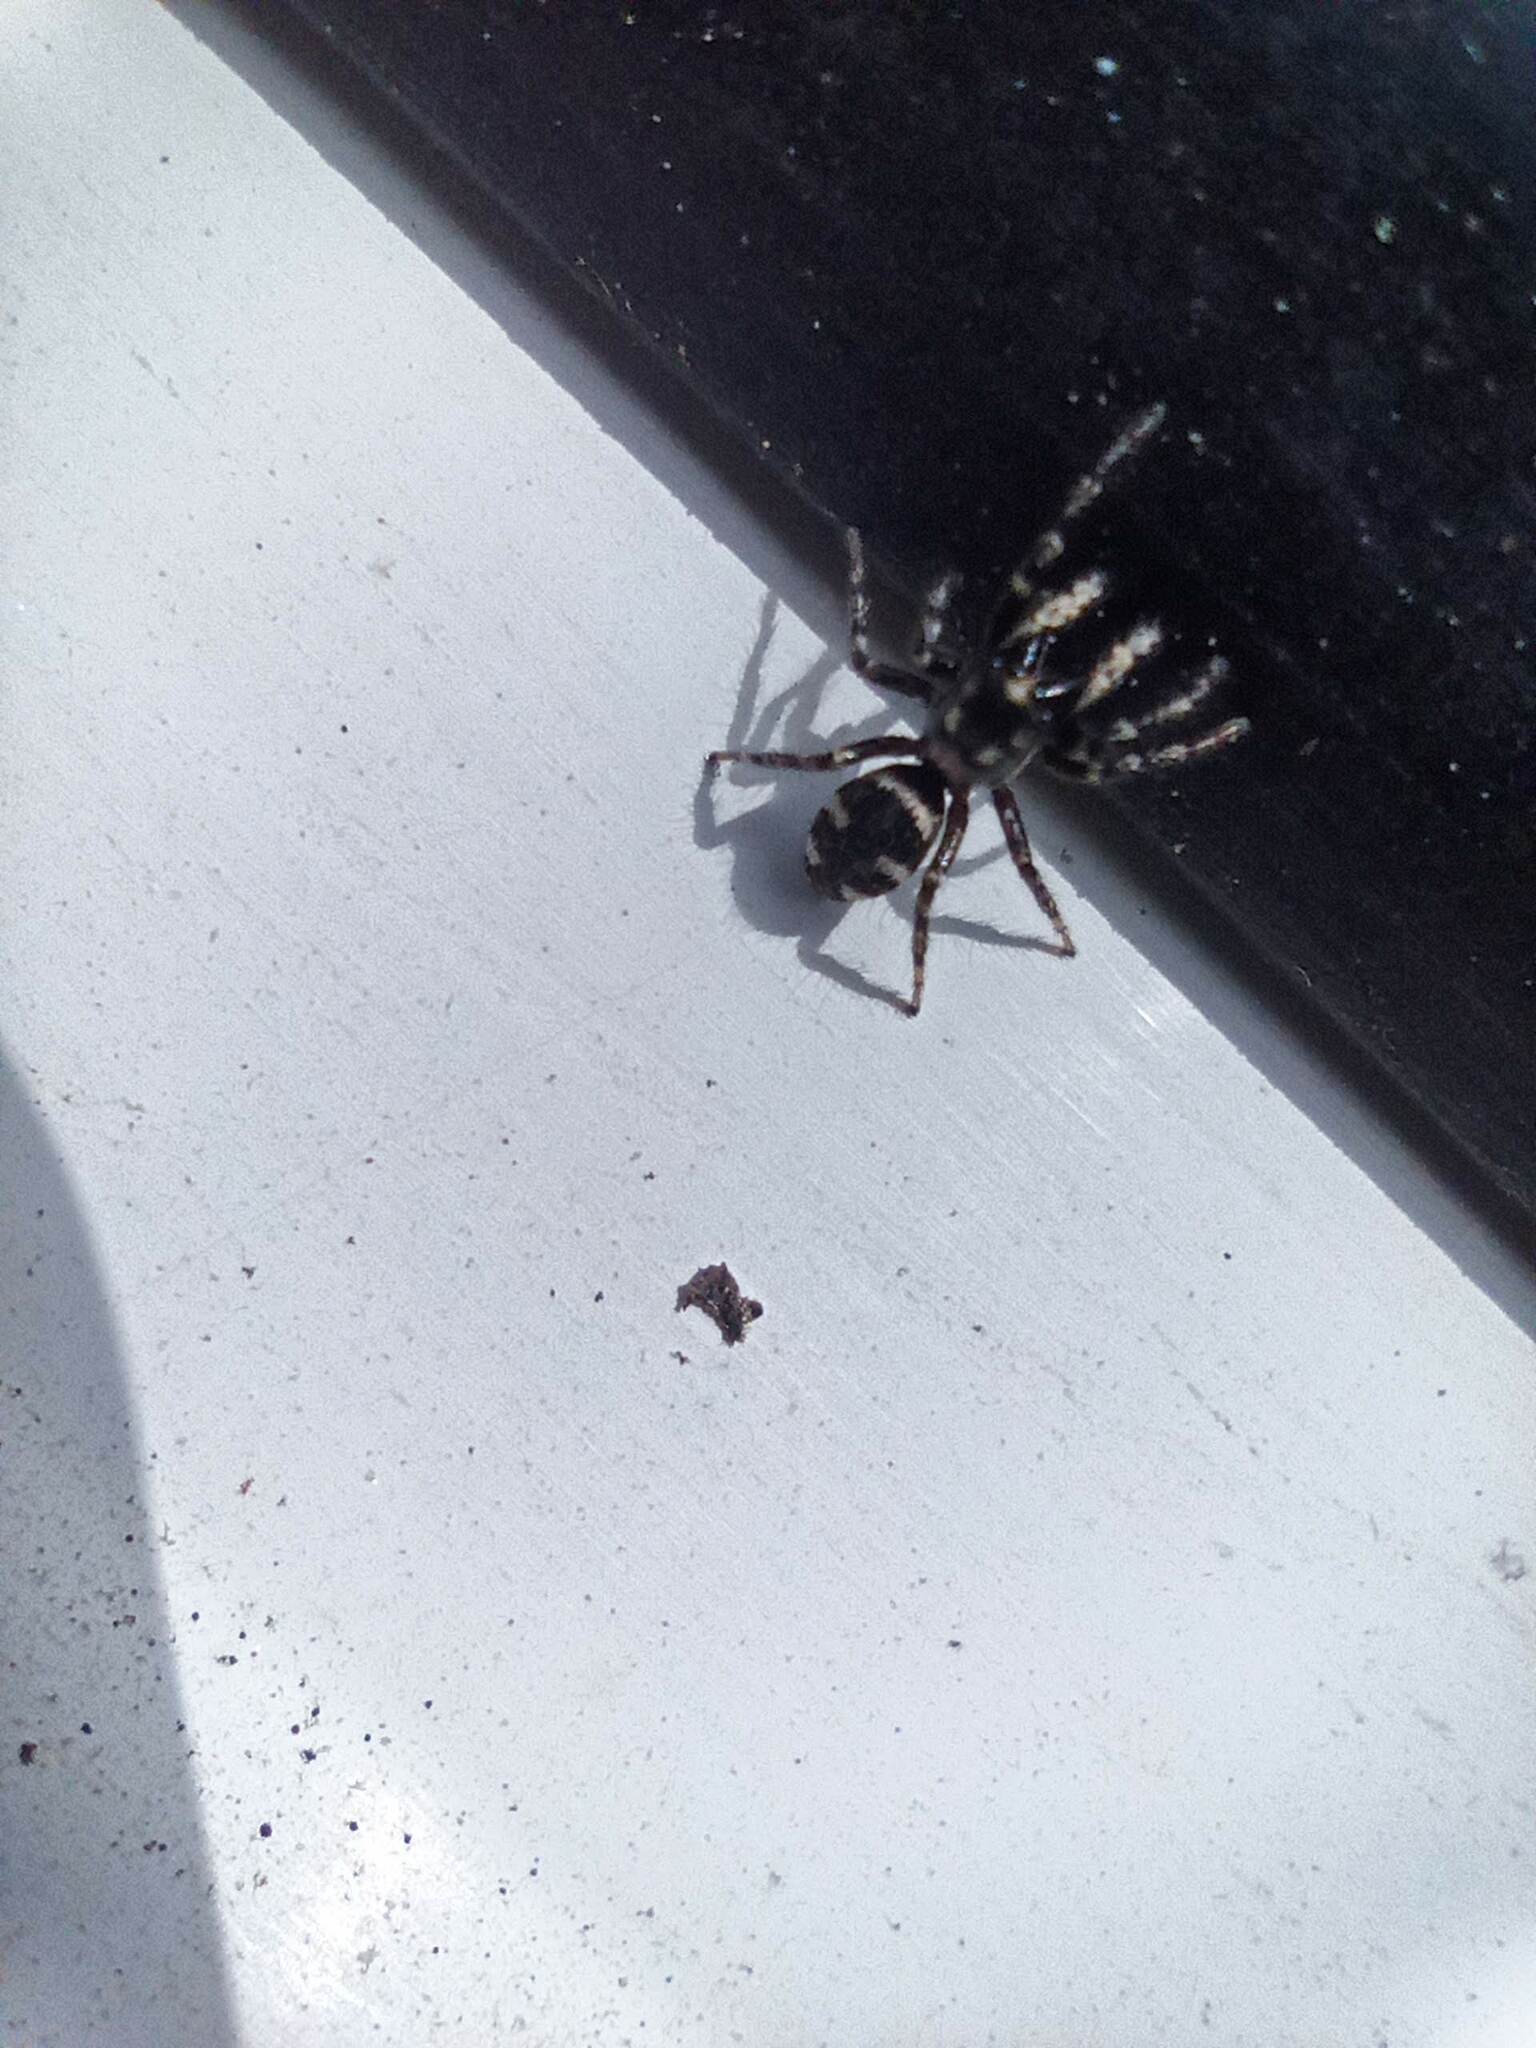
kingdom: Animalia
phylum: Arthropoda
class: Arachnida
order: Araneae
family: Salticidae
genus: Salticus
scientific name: Salticus scenicus
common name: Zebra jumper
